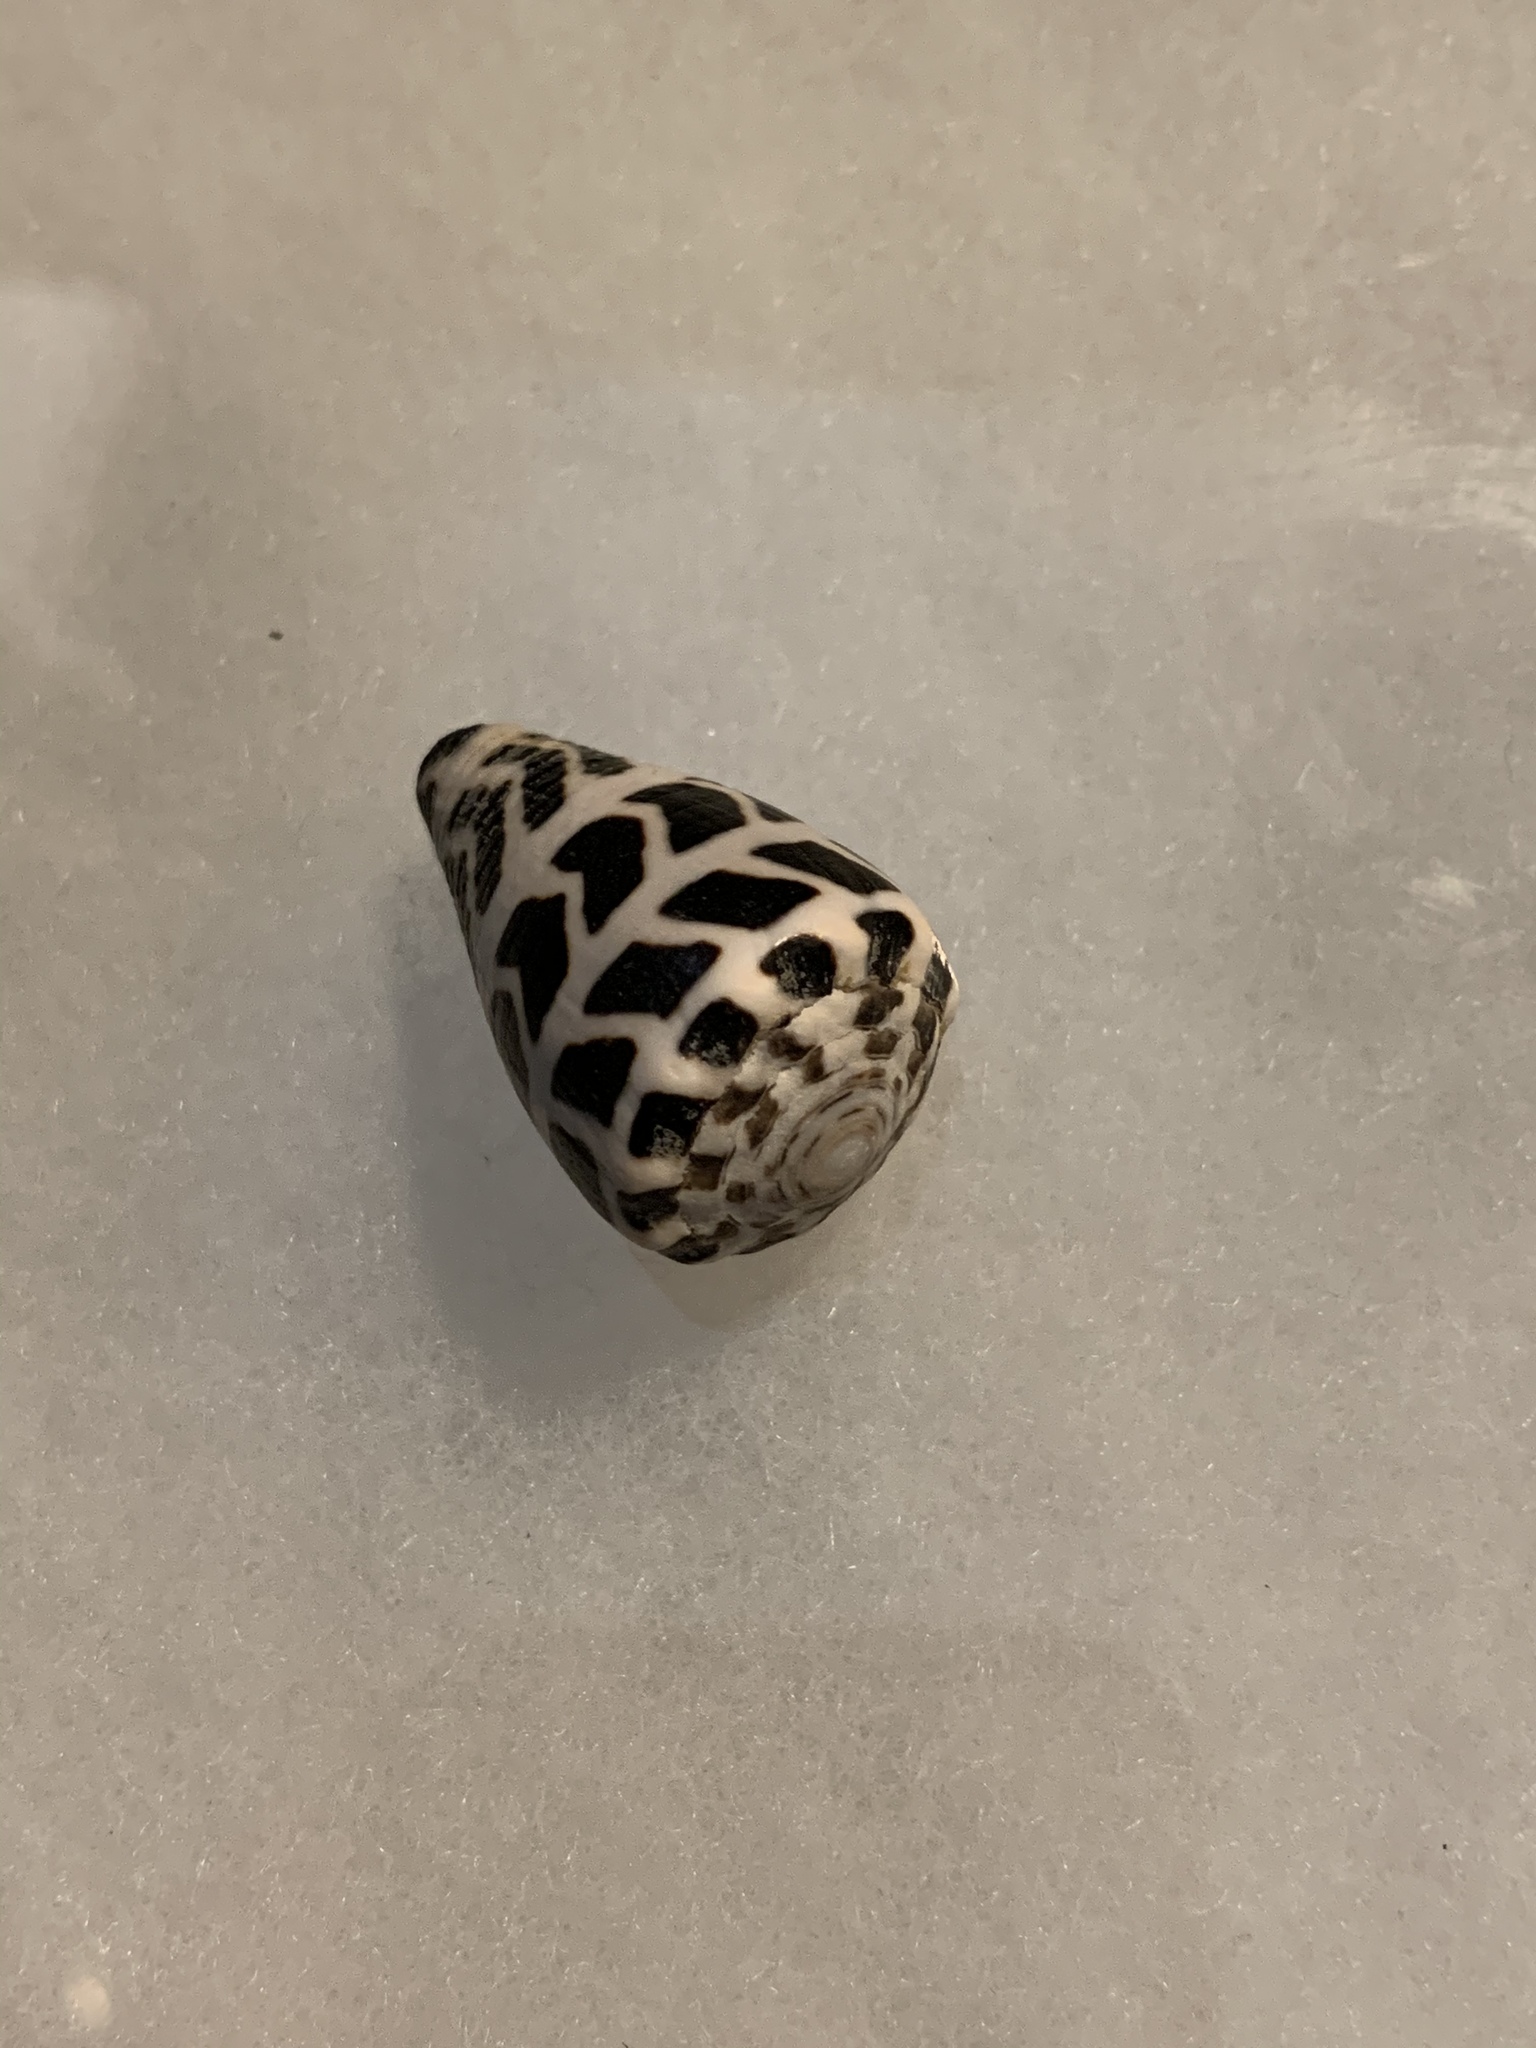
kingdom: Animalia
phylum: Mollusca
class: Gastropoda
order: Neogastropoda
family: Conidae
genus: Conus
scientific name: Conus ebraeus
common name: Hebrew cone
